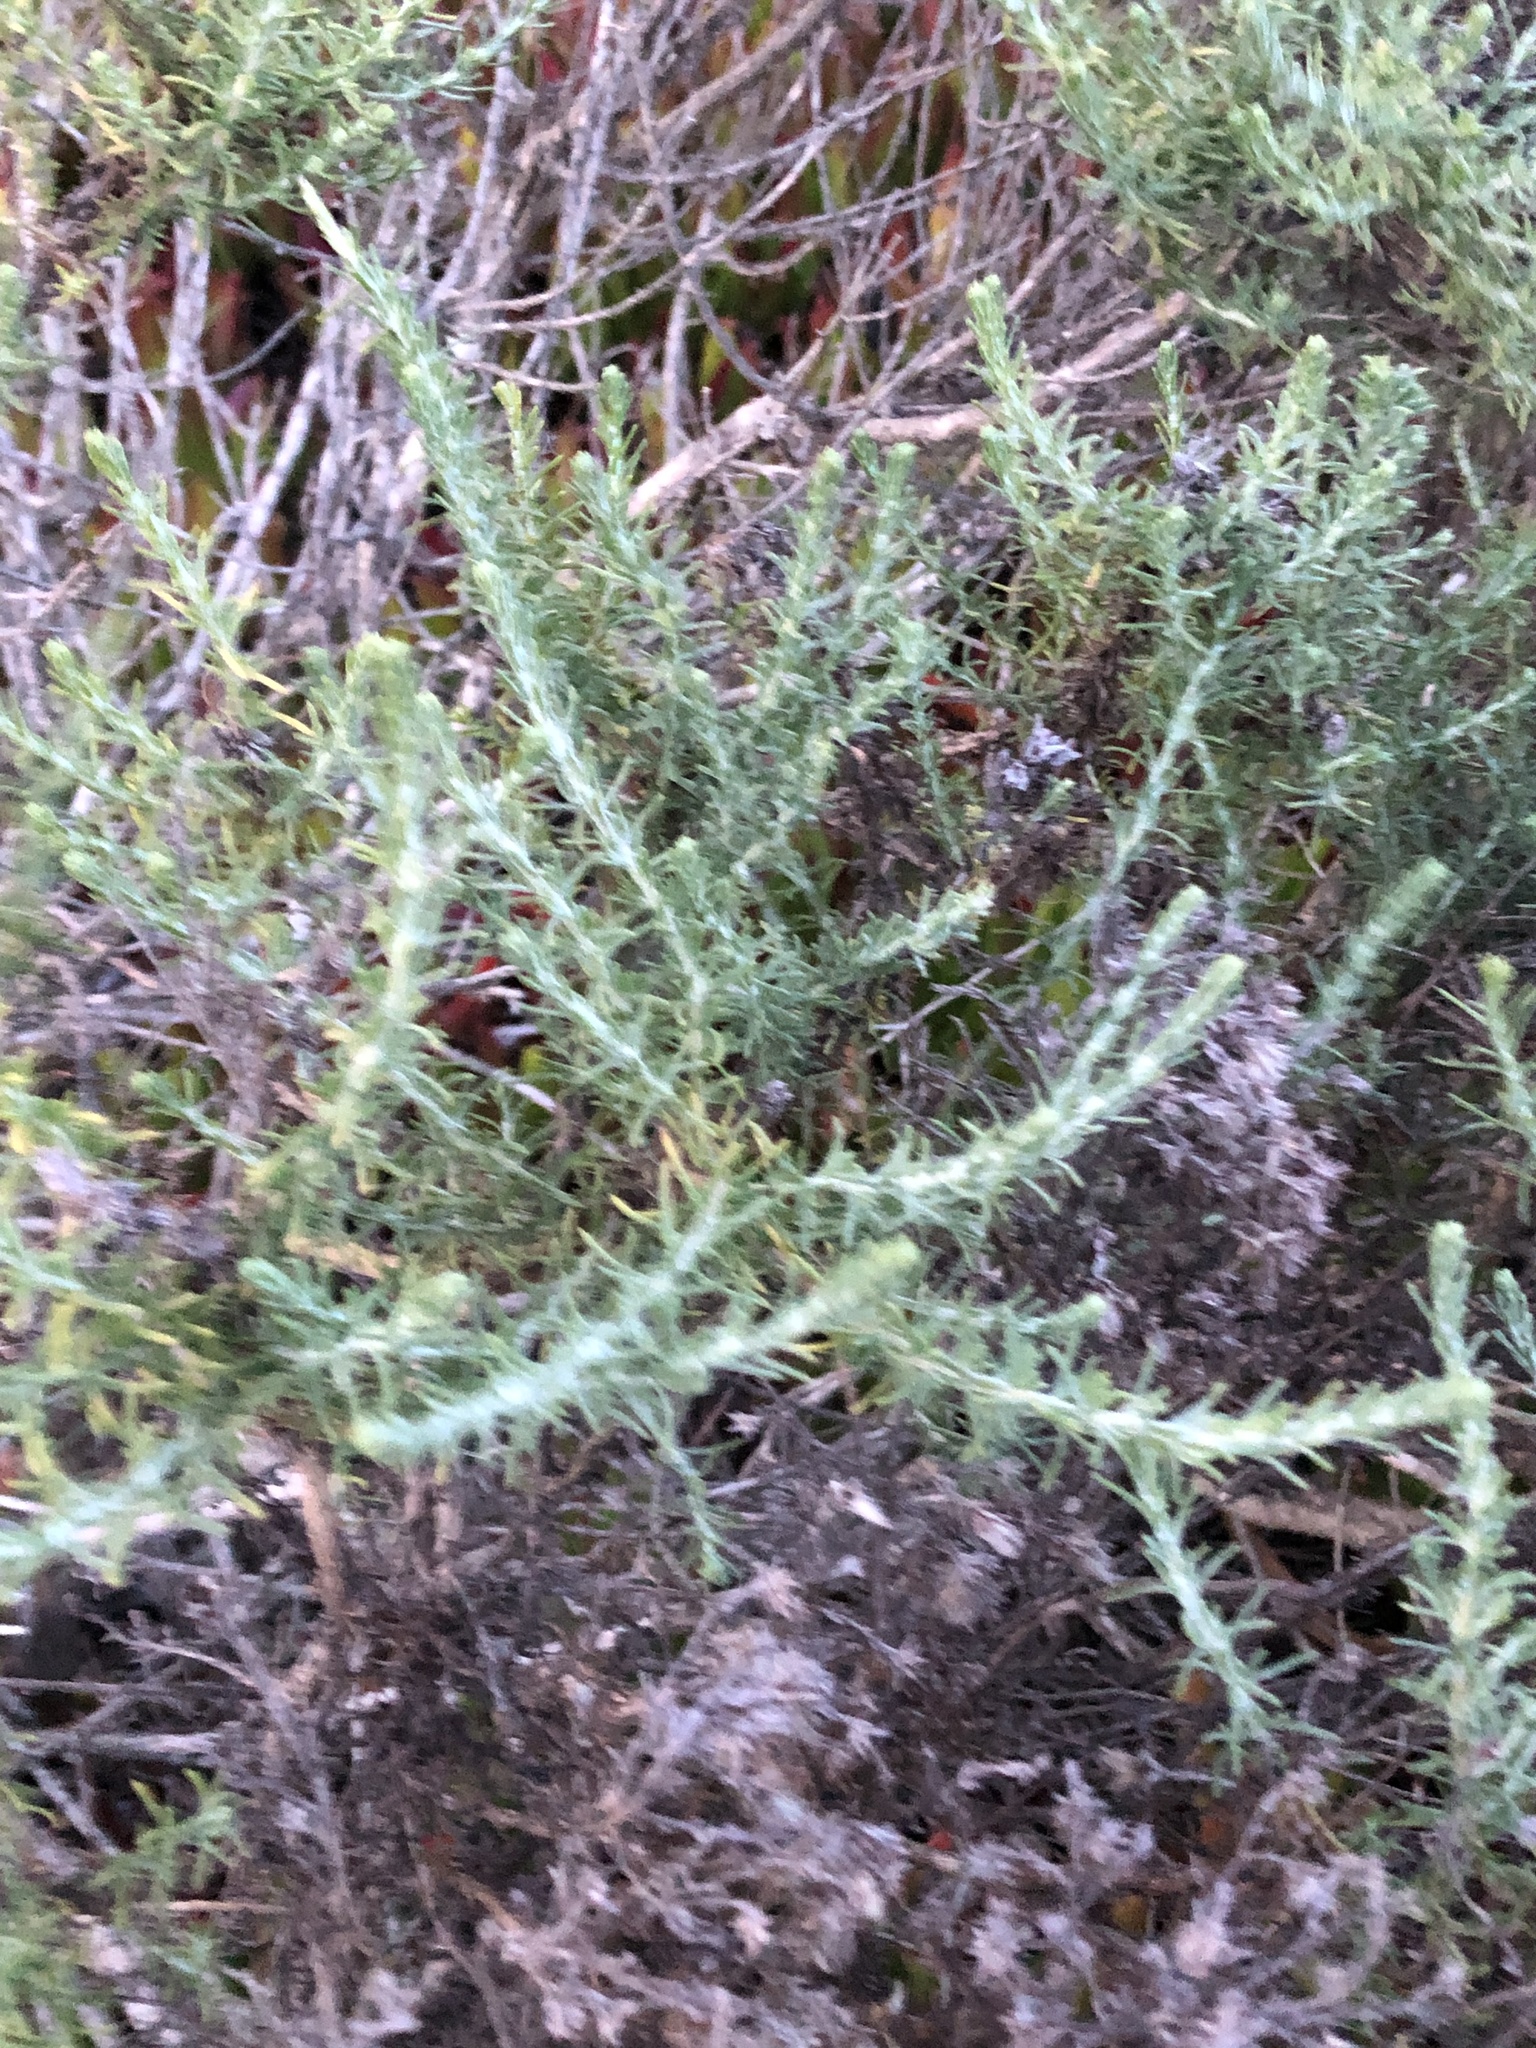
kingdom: Plantae
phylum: Tracheophyta
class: Magnoliopsida
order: Asterales
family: Asteraceae
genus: Ericameria
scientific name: Ericameria ericoides
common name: California goldenbush
